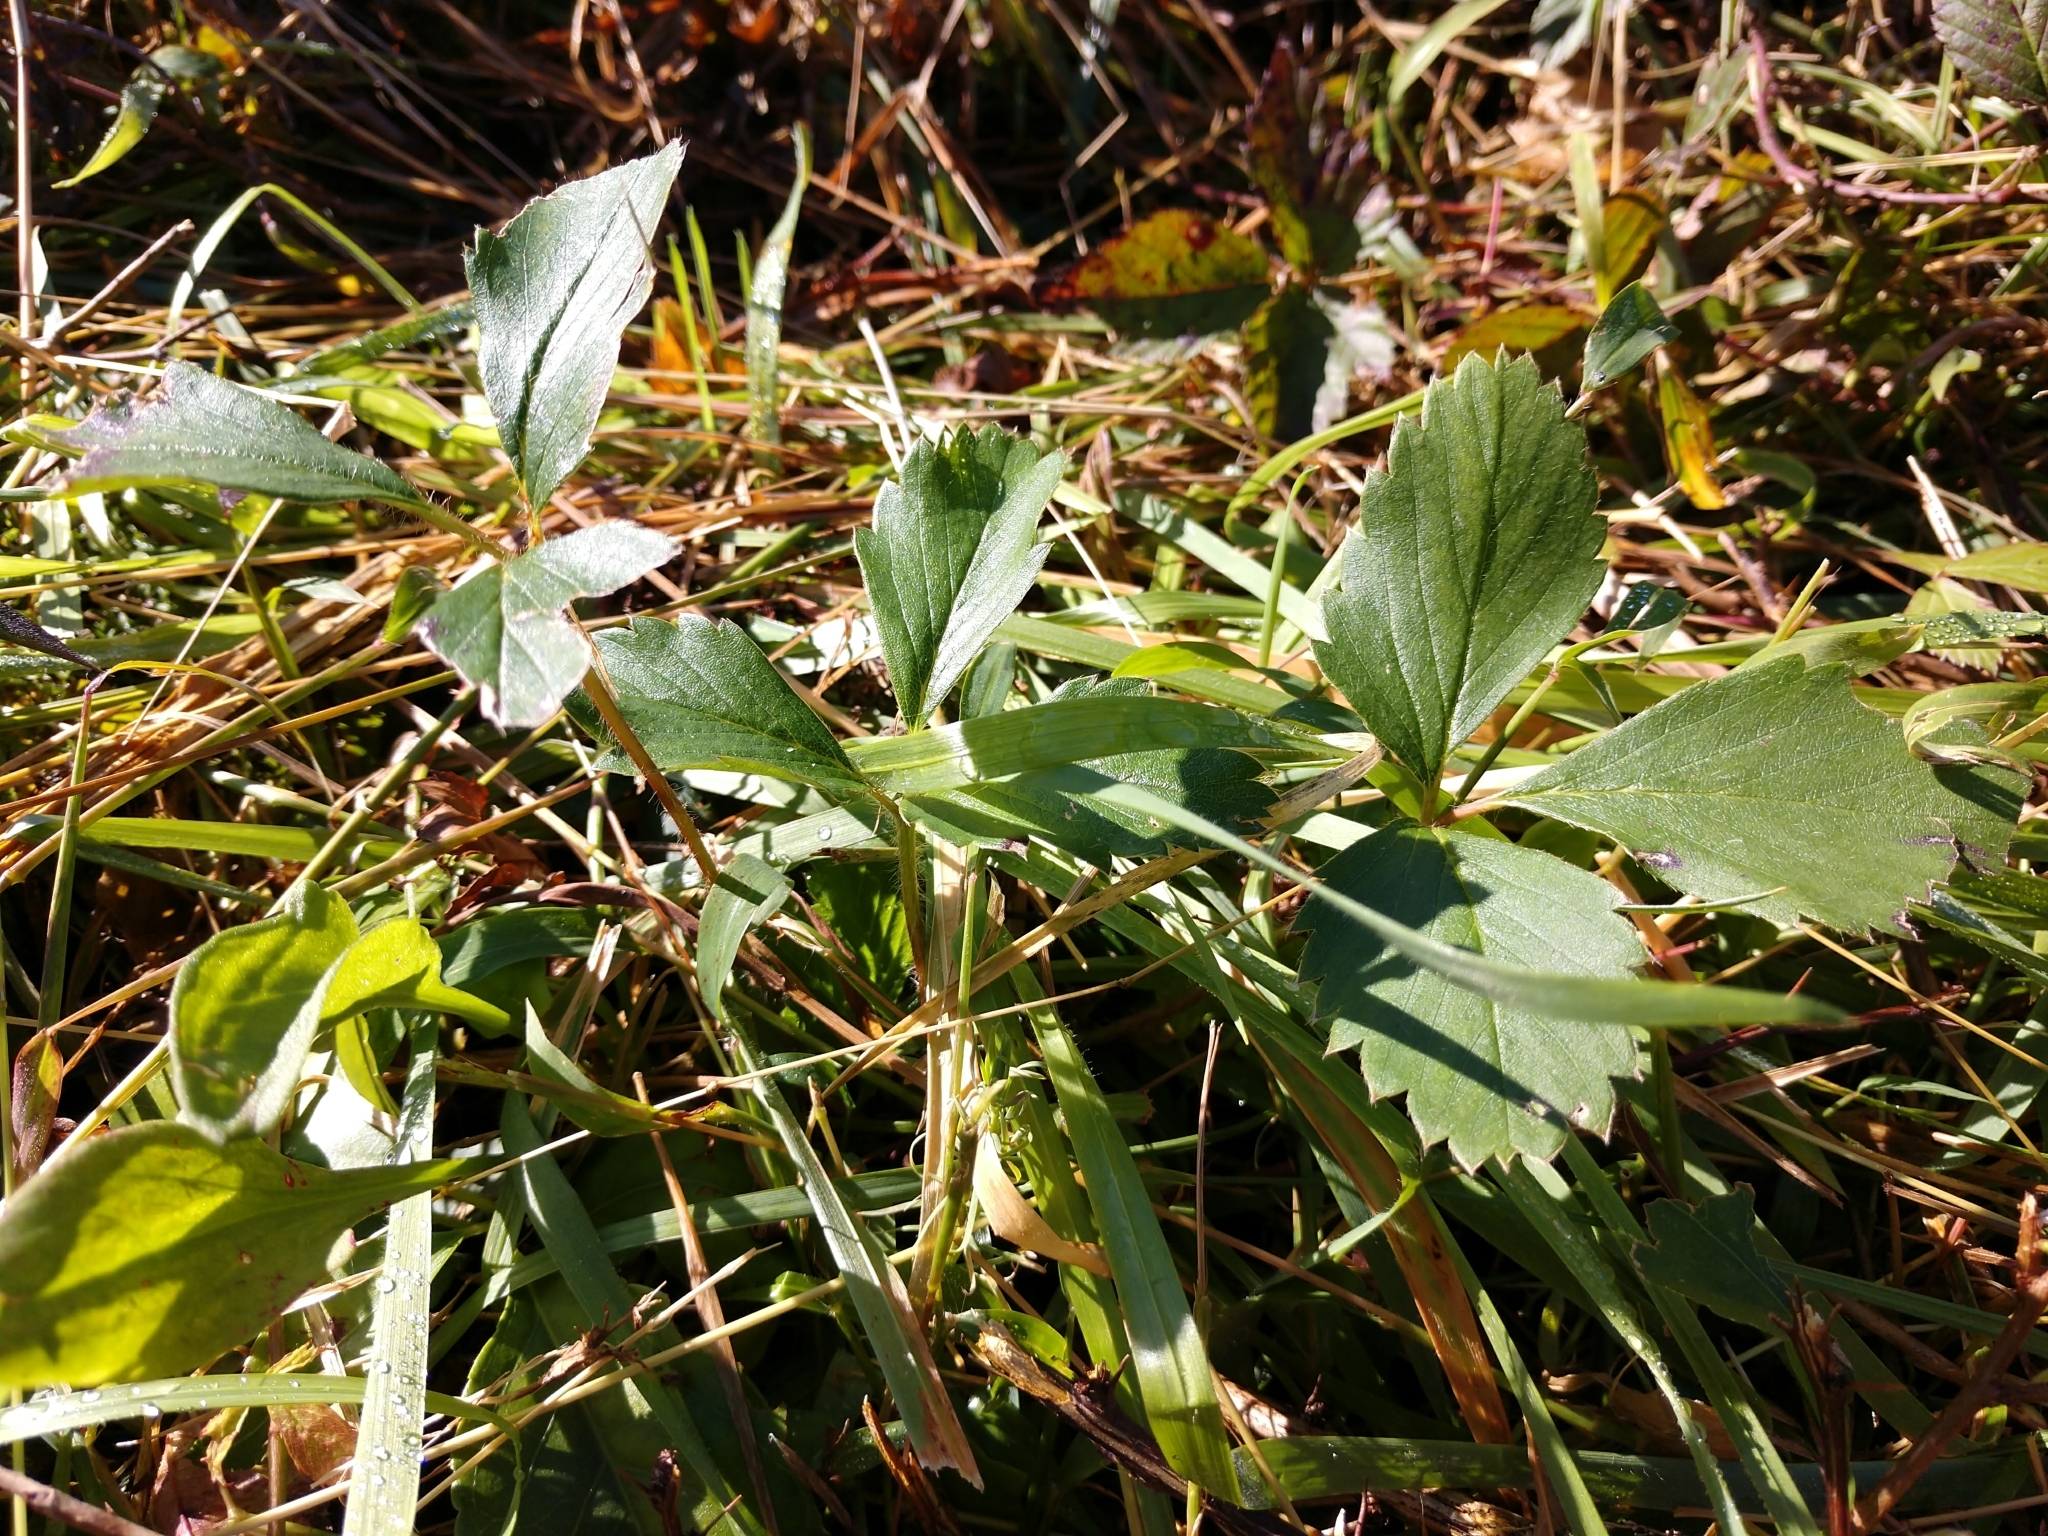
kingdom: Plantae
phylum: Tracheophyta
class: Magnoliopsida
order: Rosales
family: Rosaceae
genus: Fragaria
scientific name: Fragaria virginiana
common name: Thickleaved wild strawberry
